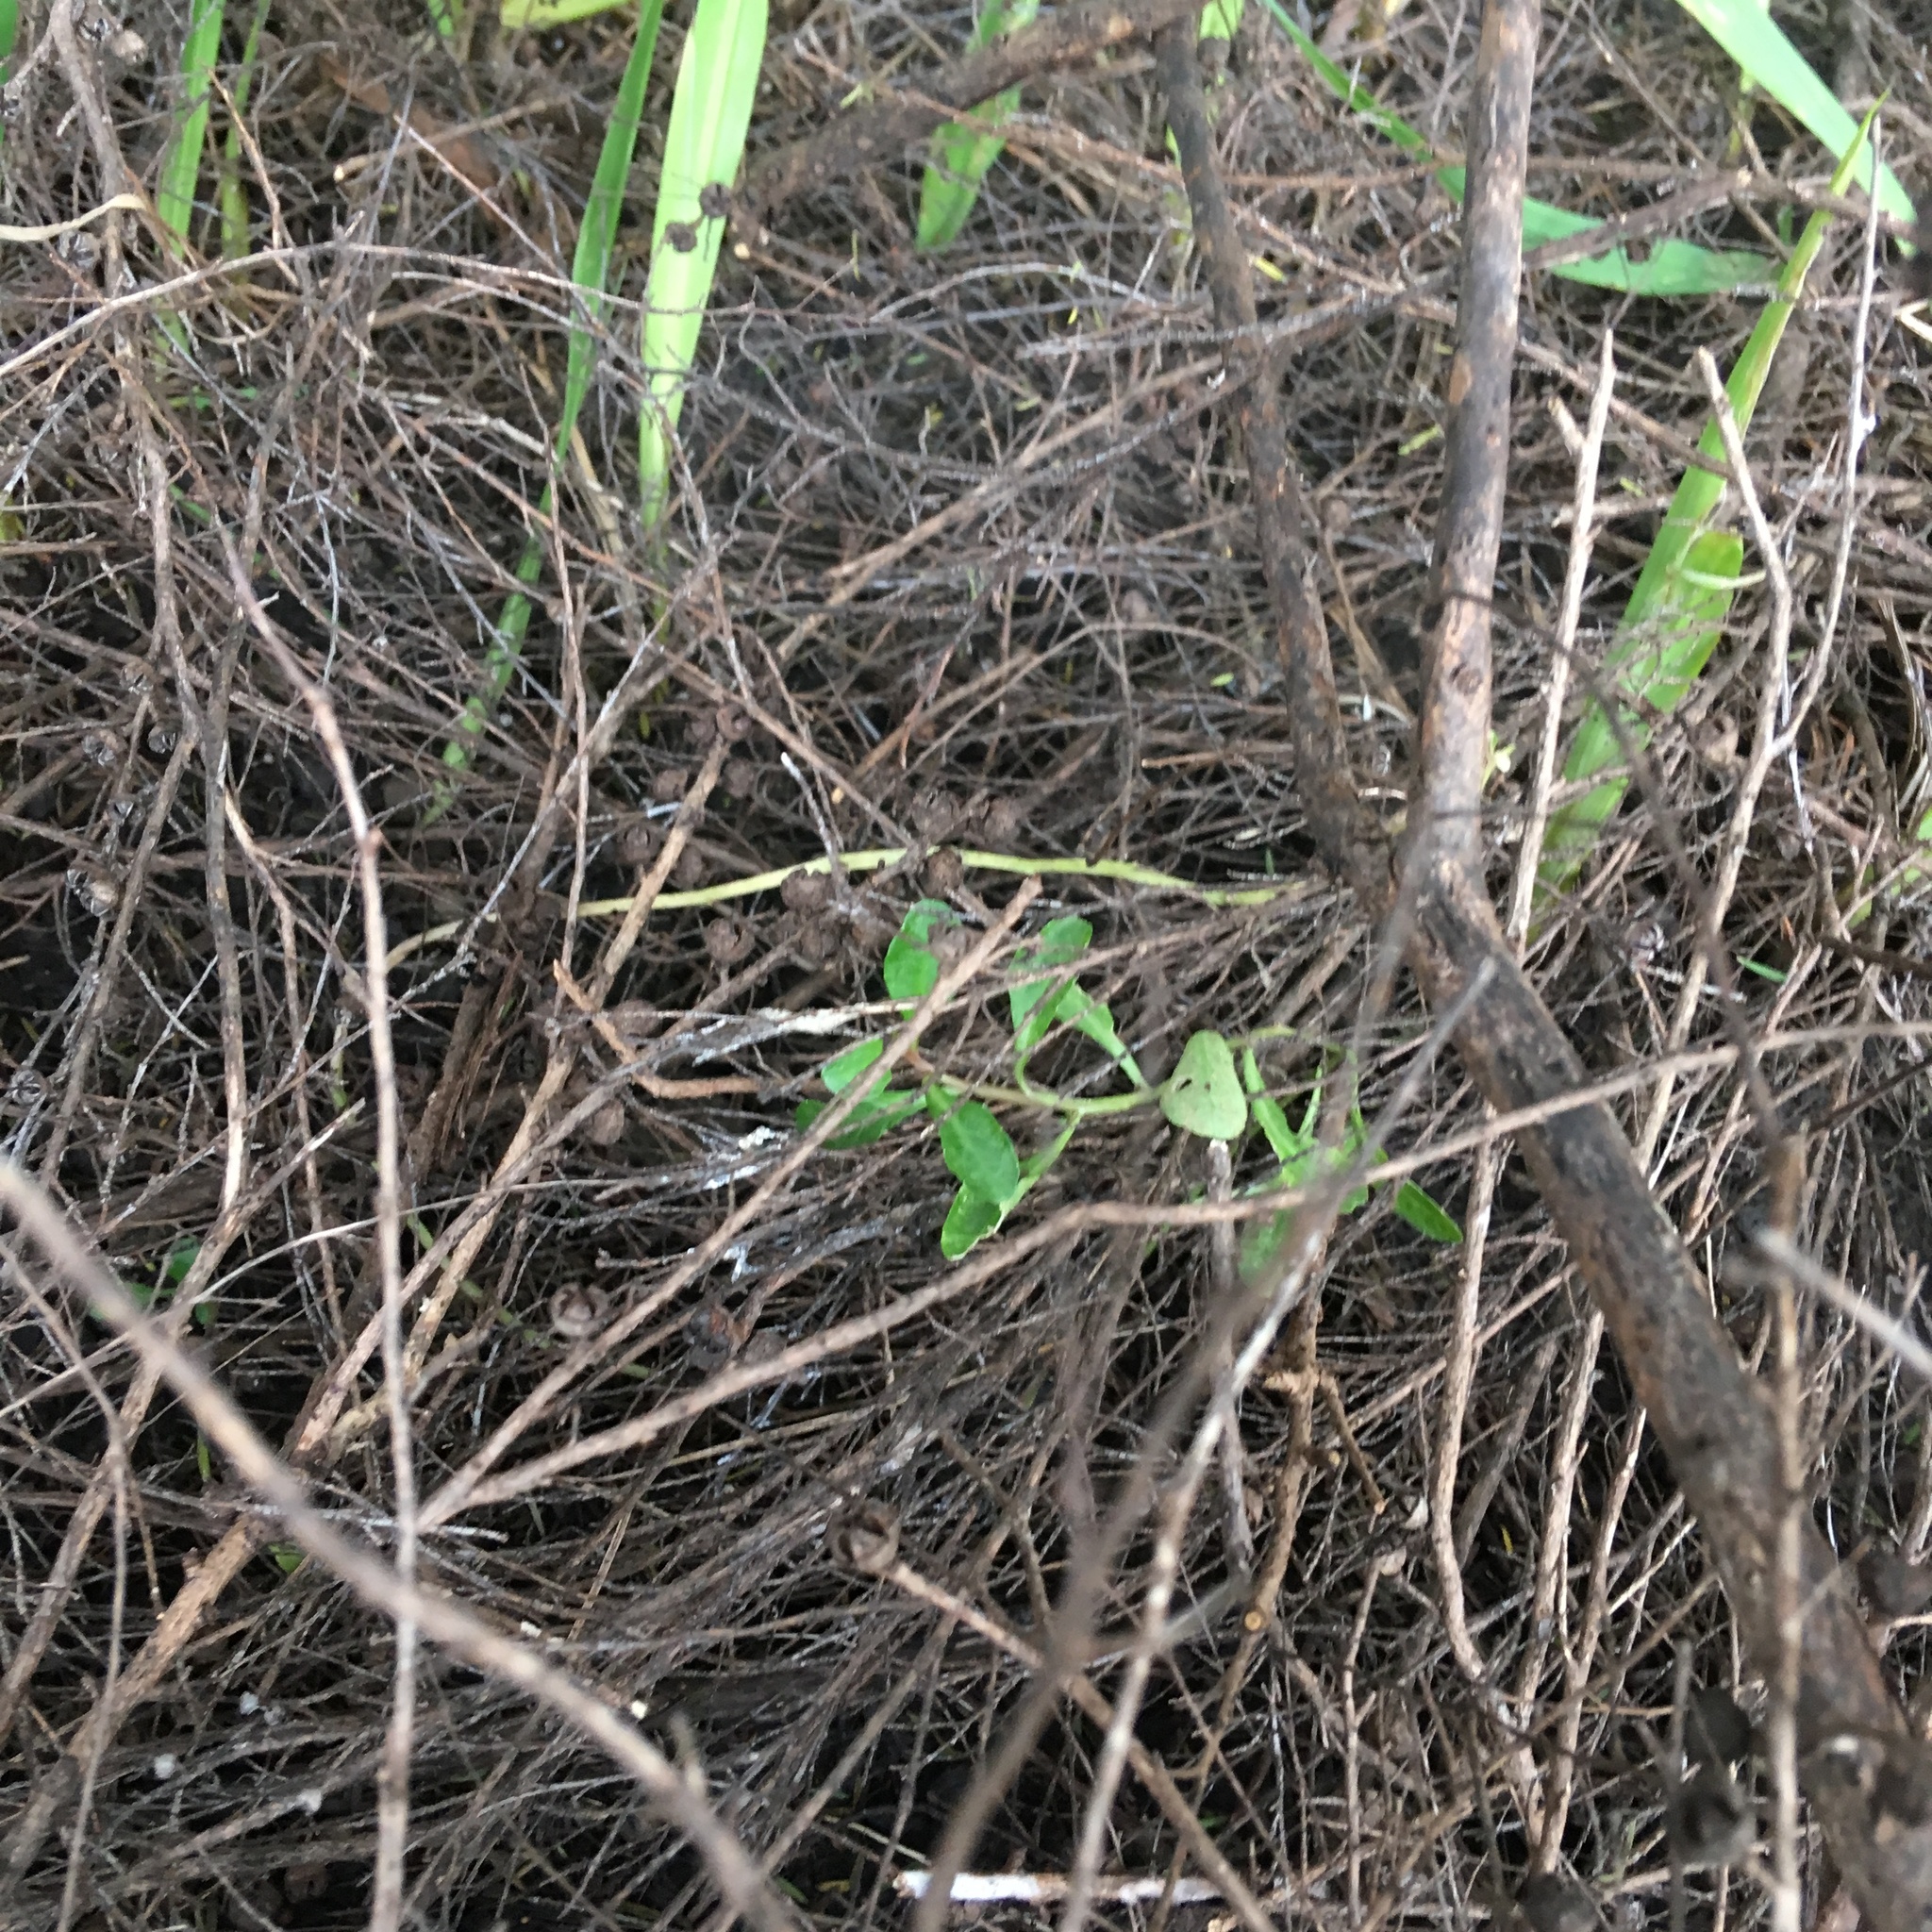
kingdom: Plantae
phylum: Tracheophyta
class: Magnoliopsida
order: Asterales
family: Campanulaceae
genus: Lobelia
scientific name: Lobelia anceps
